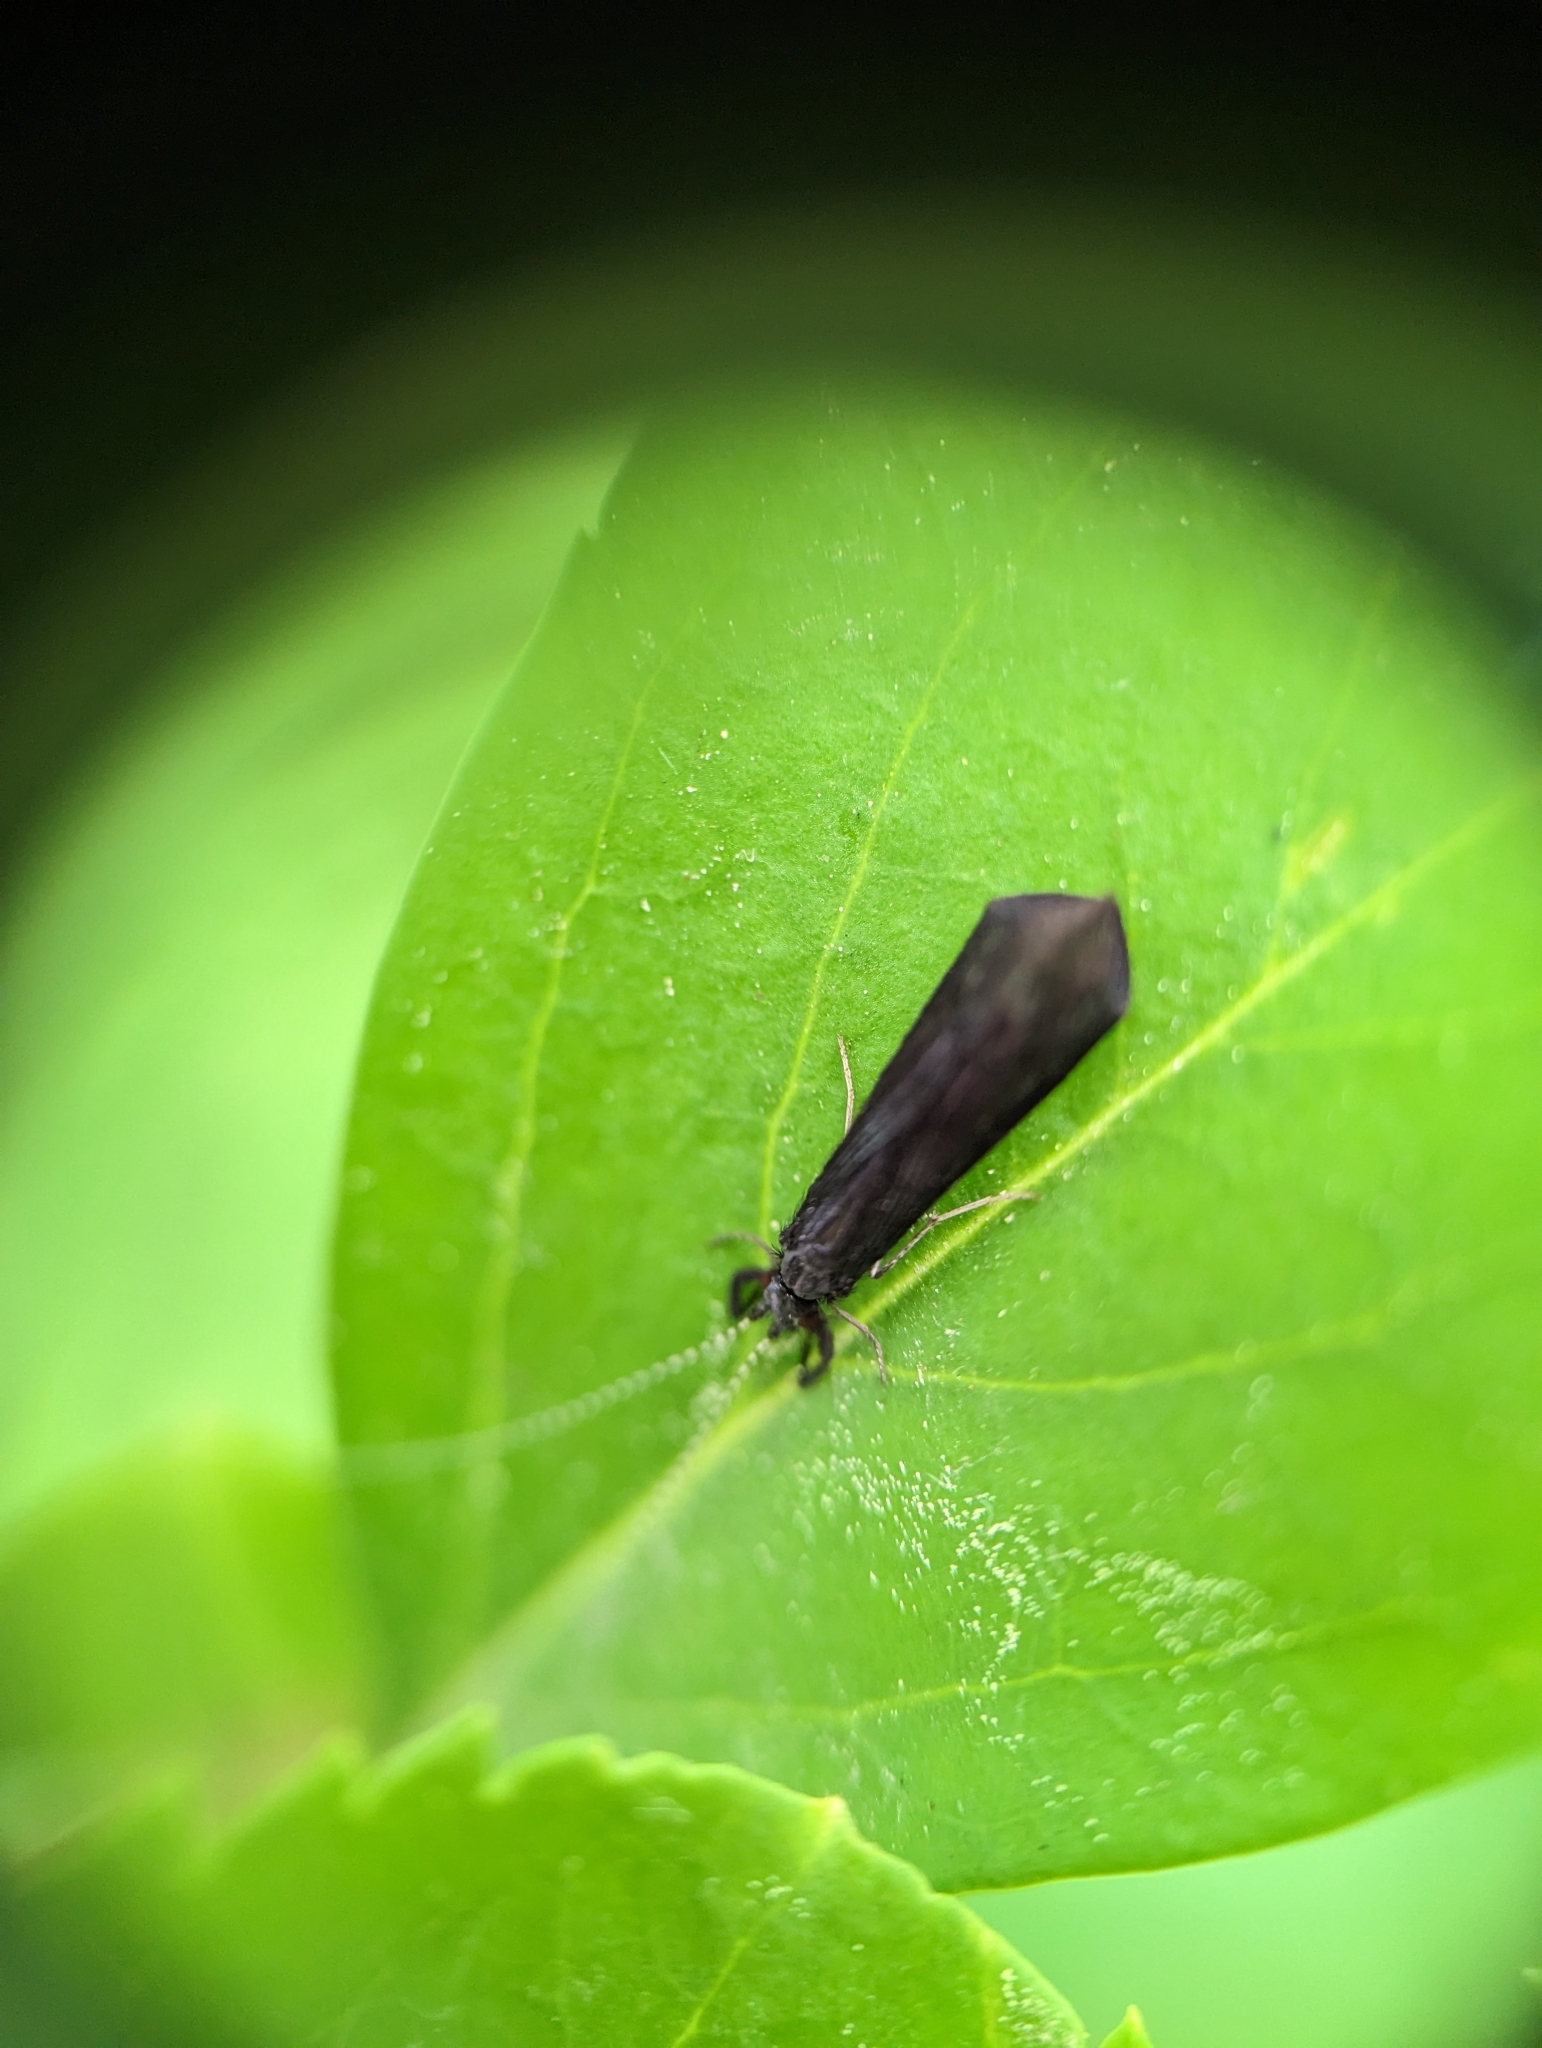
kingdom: Animalia
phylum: Arthropoda
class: Insecta
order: Trichoptera
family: Leptoceridae
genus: Mystacides
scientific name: Mystacides sepulchralis
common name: Black dancer caddisfly
